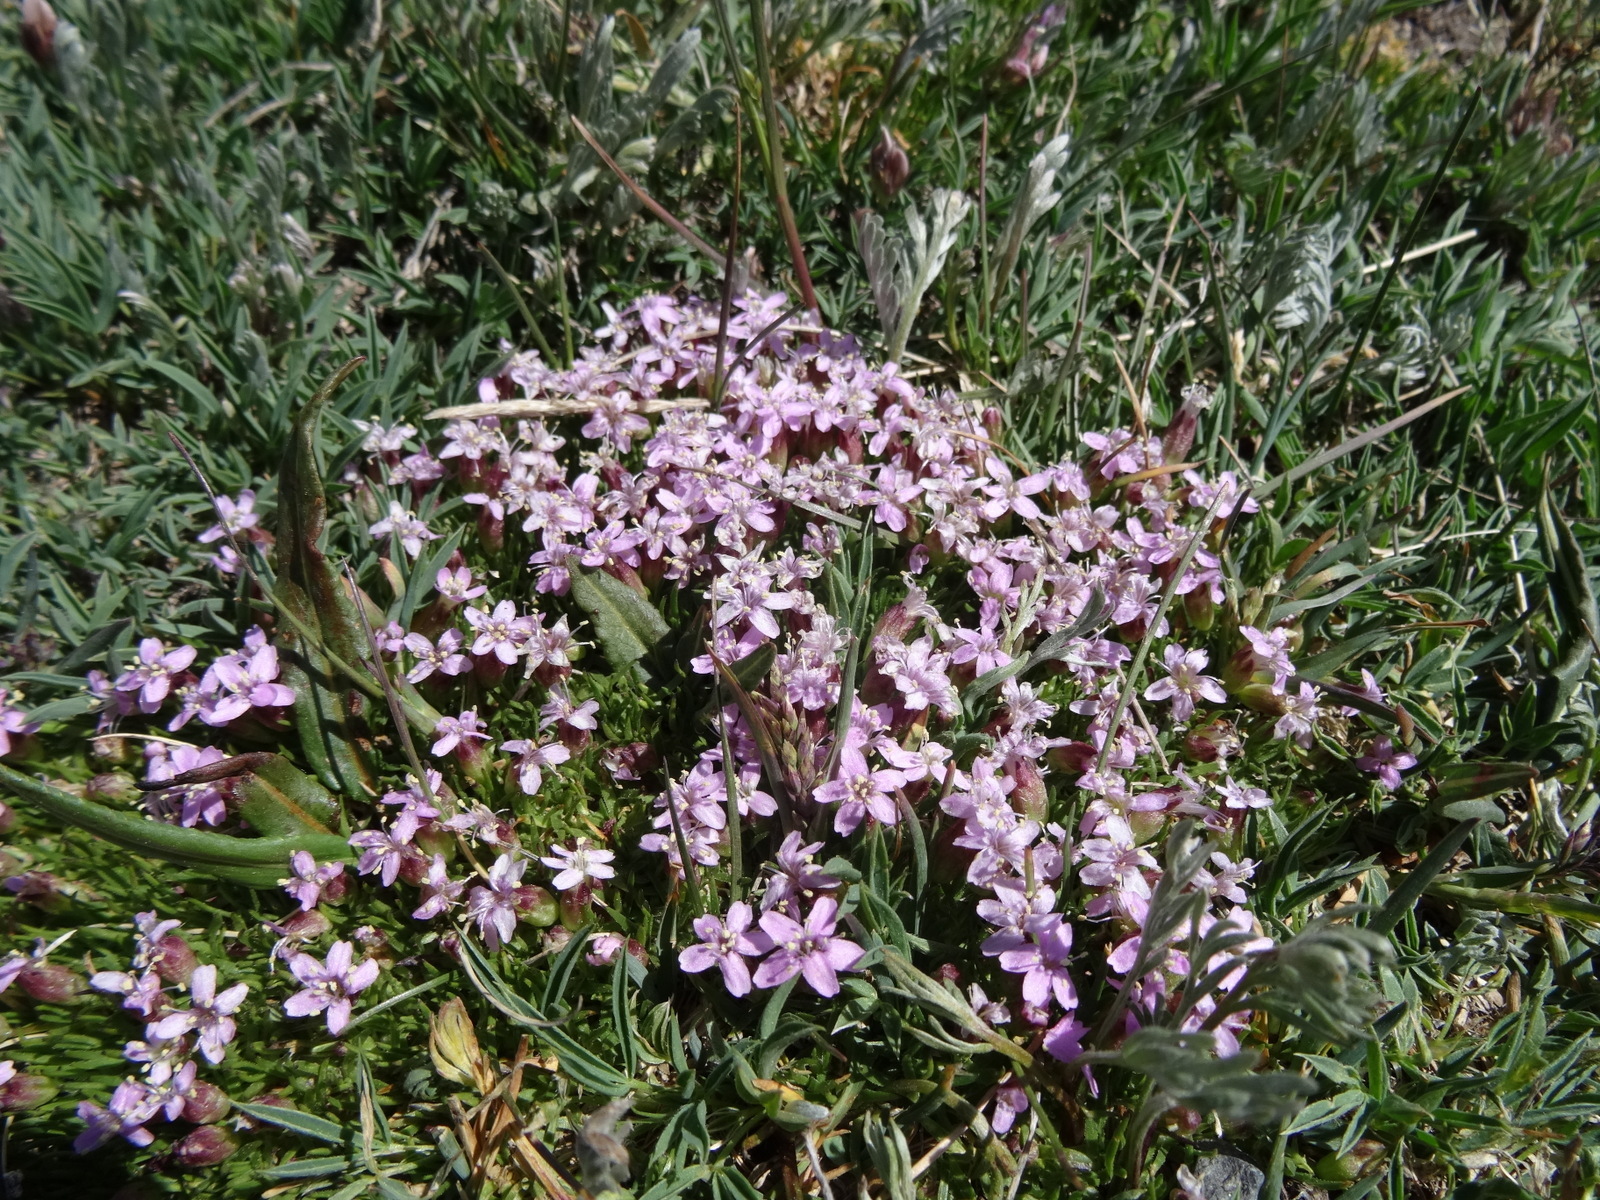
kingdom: Plantae
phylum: Tracheophyta
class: Magnoliopsida
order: Caryophyllales
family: Caryophyllaceae
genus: Silene
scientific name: Silene acaulis
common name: Moss campion
